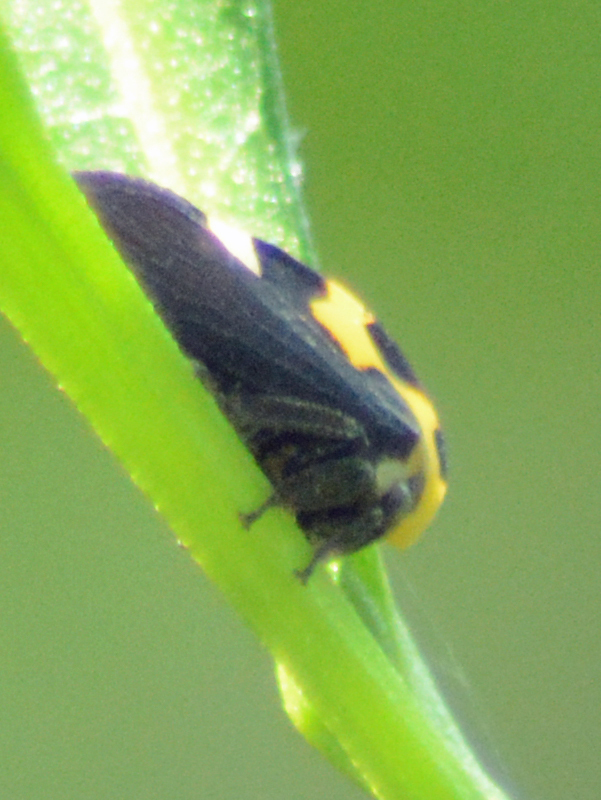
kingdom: Animalia
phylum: Arthropoda
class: Insecta
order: Hemiptera
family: Membracidae
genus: Membracis
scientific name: Membracis mexicana
